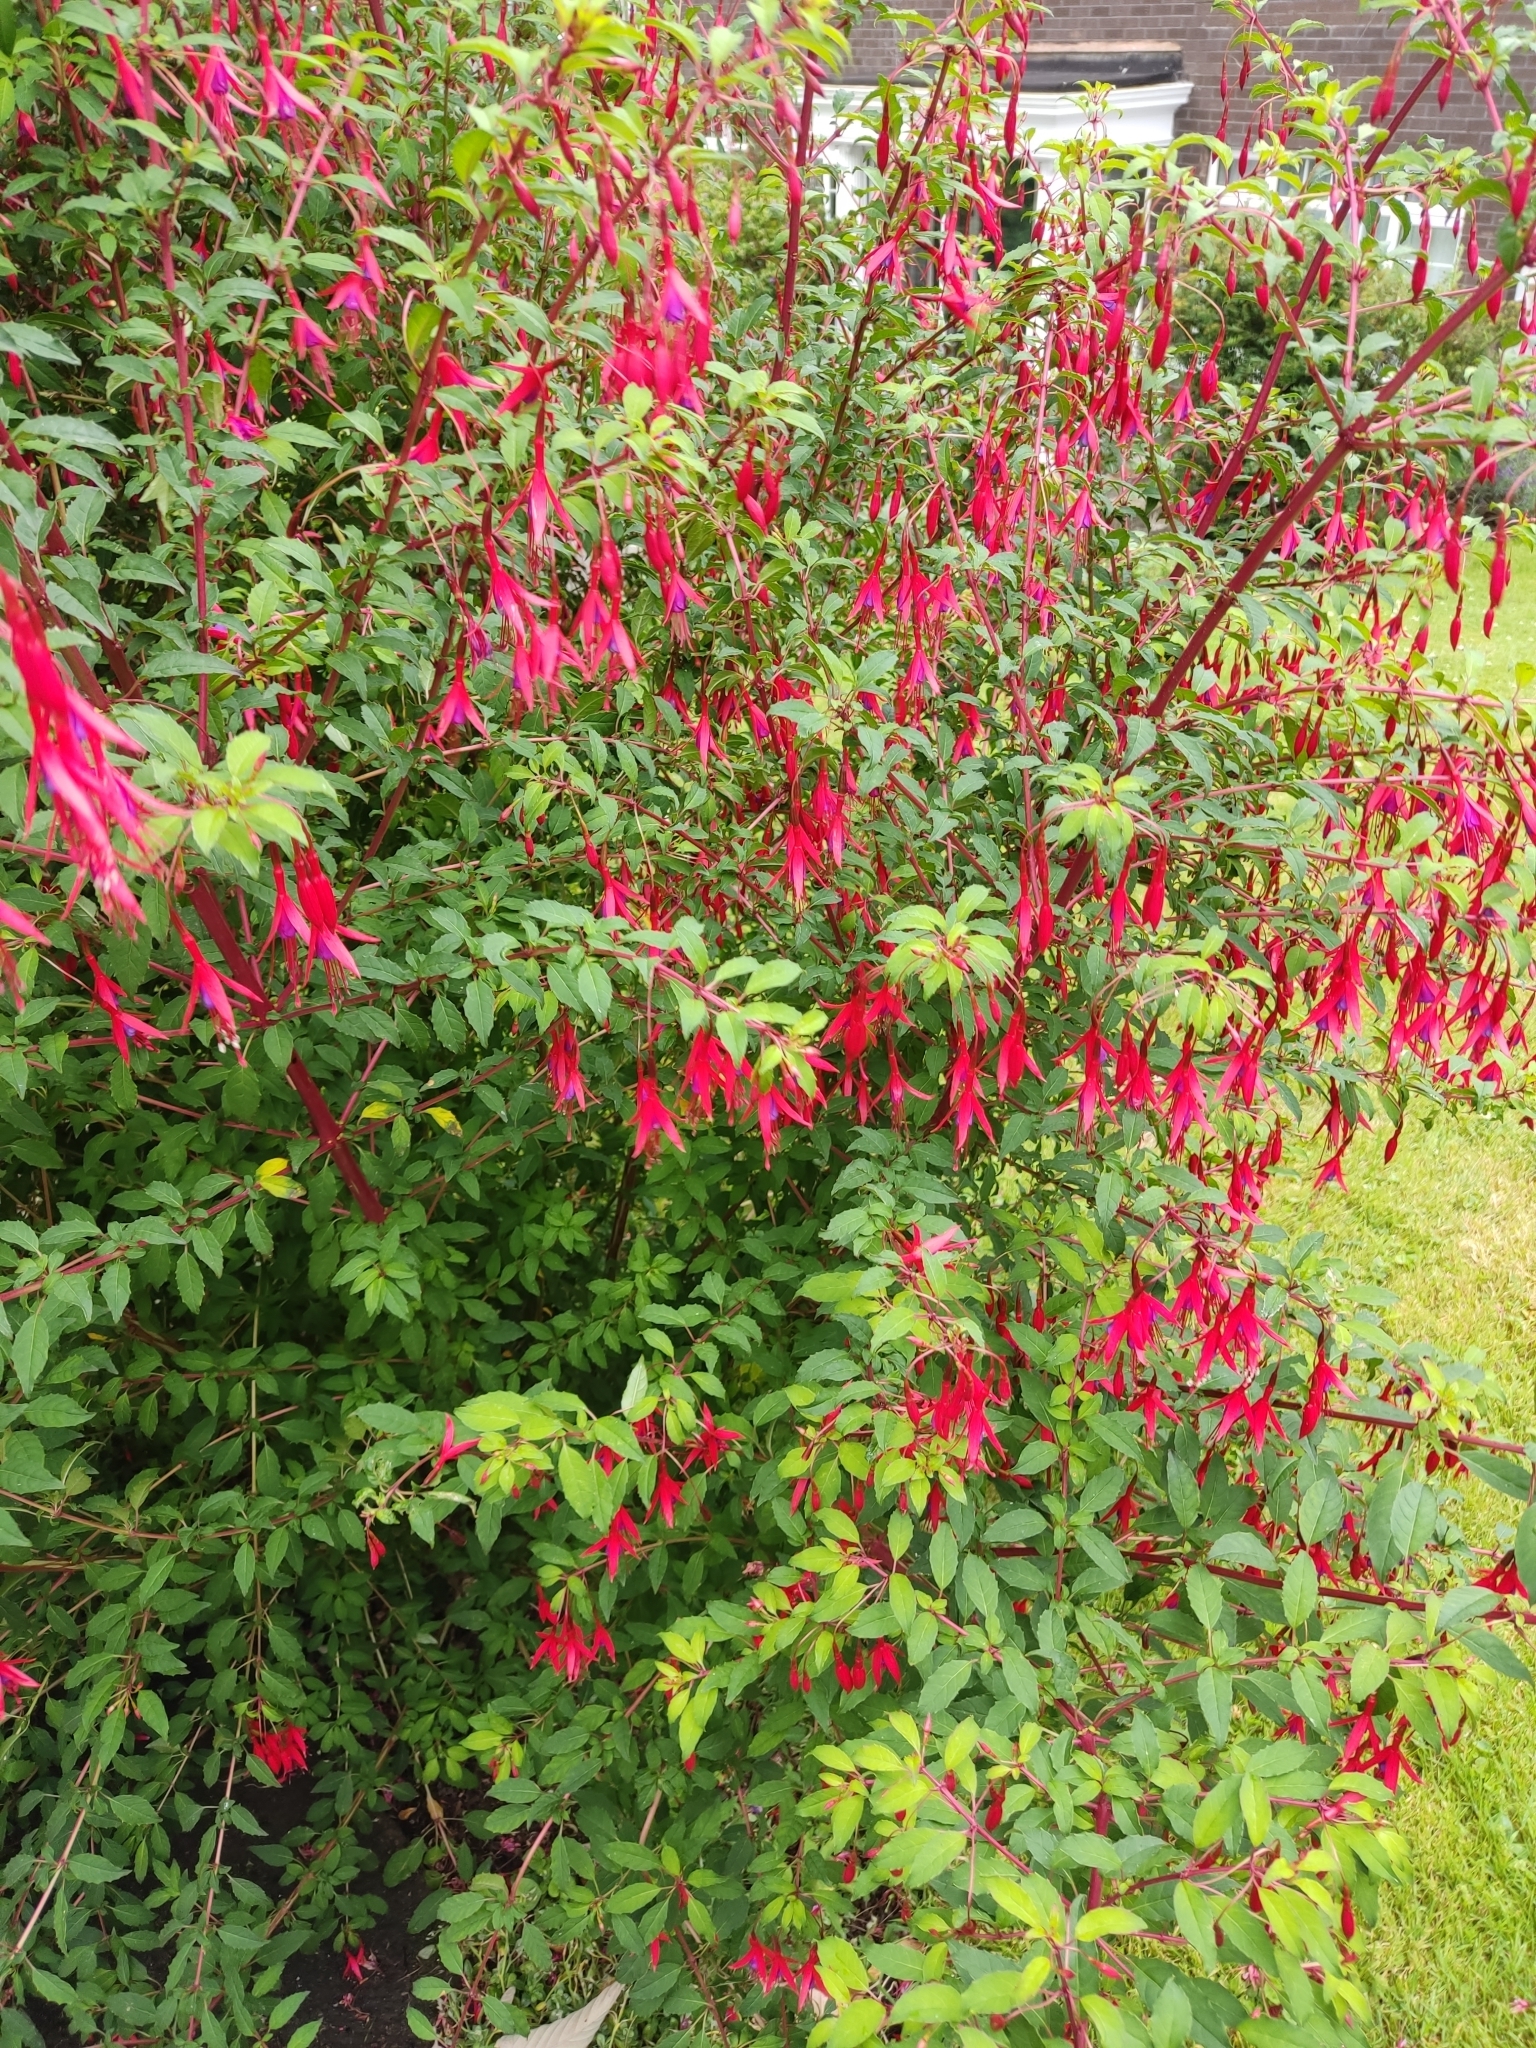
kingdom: Plantae
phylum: Tracheophyta
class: Magnoliopsida
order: Myrtales
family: Onagraceae
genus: Fuchsia
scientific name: Fuchsia magellanica
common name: Hardy fuchsia
